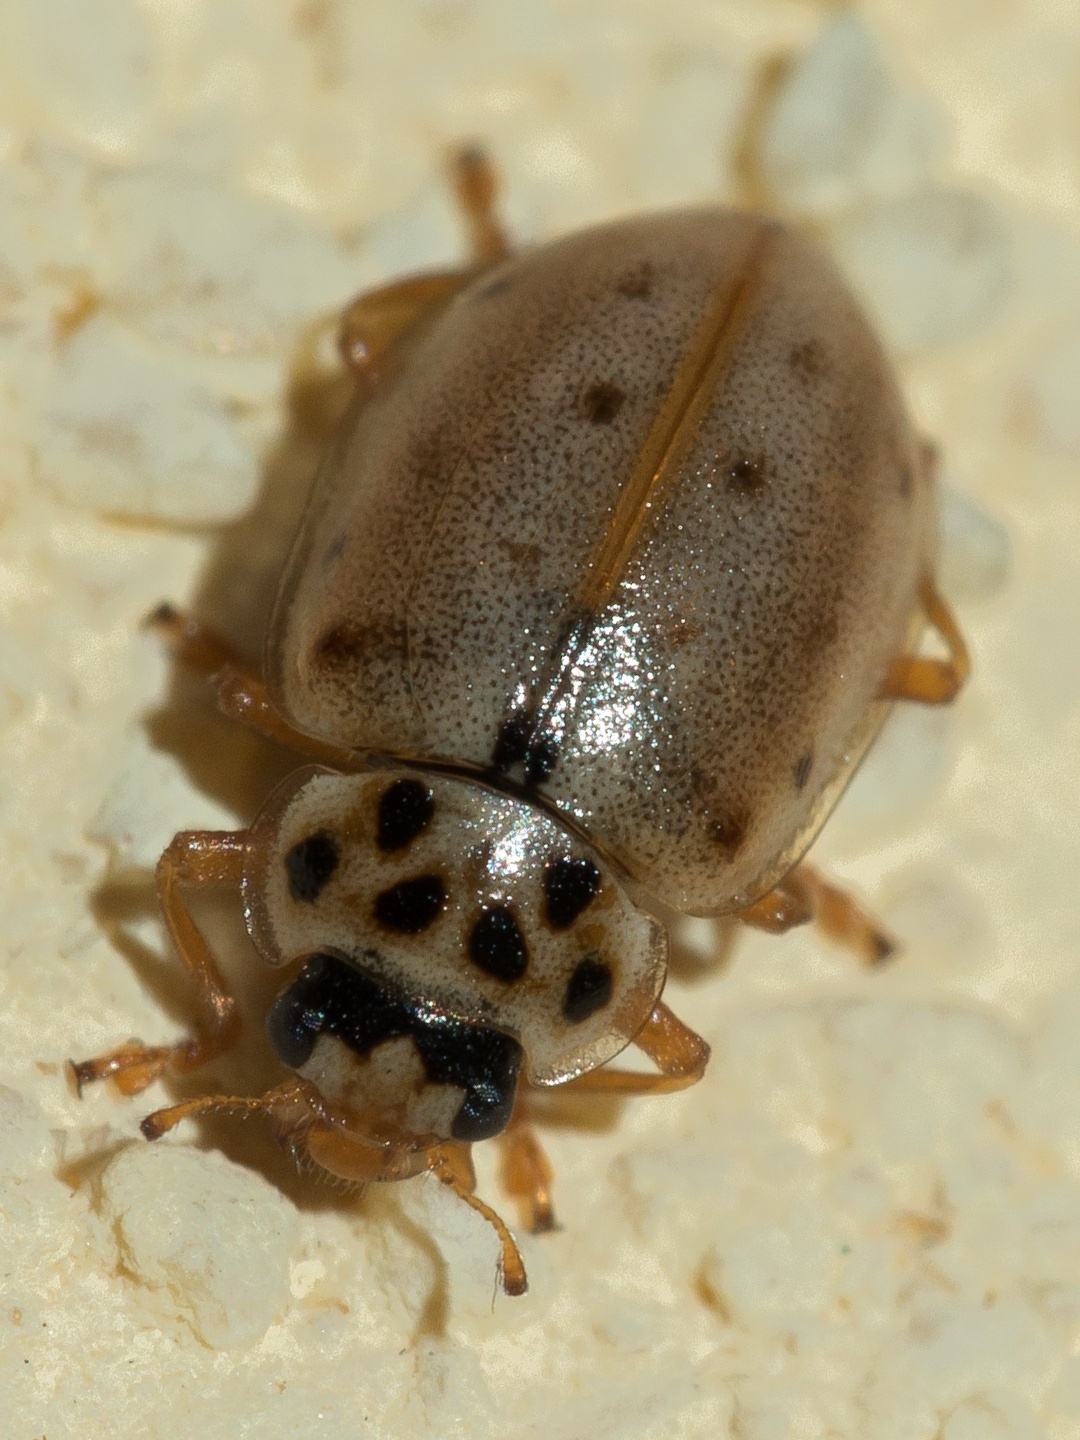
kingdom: Animalia
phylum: Arthropoda
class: Insecta
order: Coleoptera
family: Coccinellidae
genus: Anisosticta
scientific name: Anisosticta novemdecimpunctata
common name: Water ladybird
